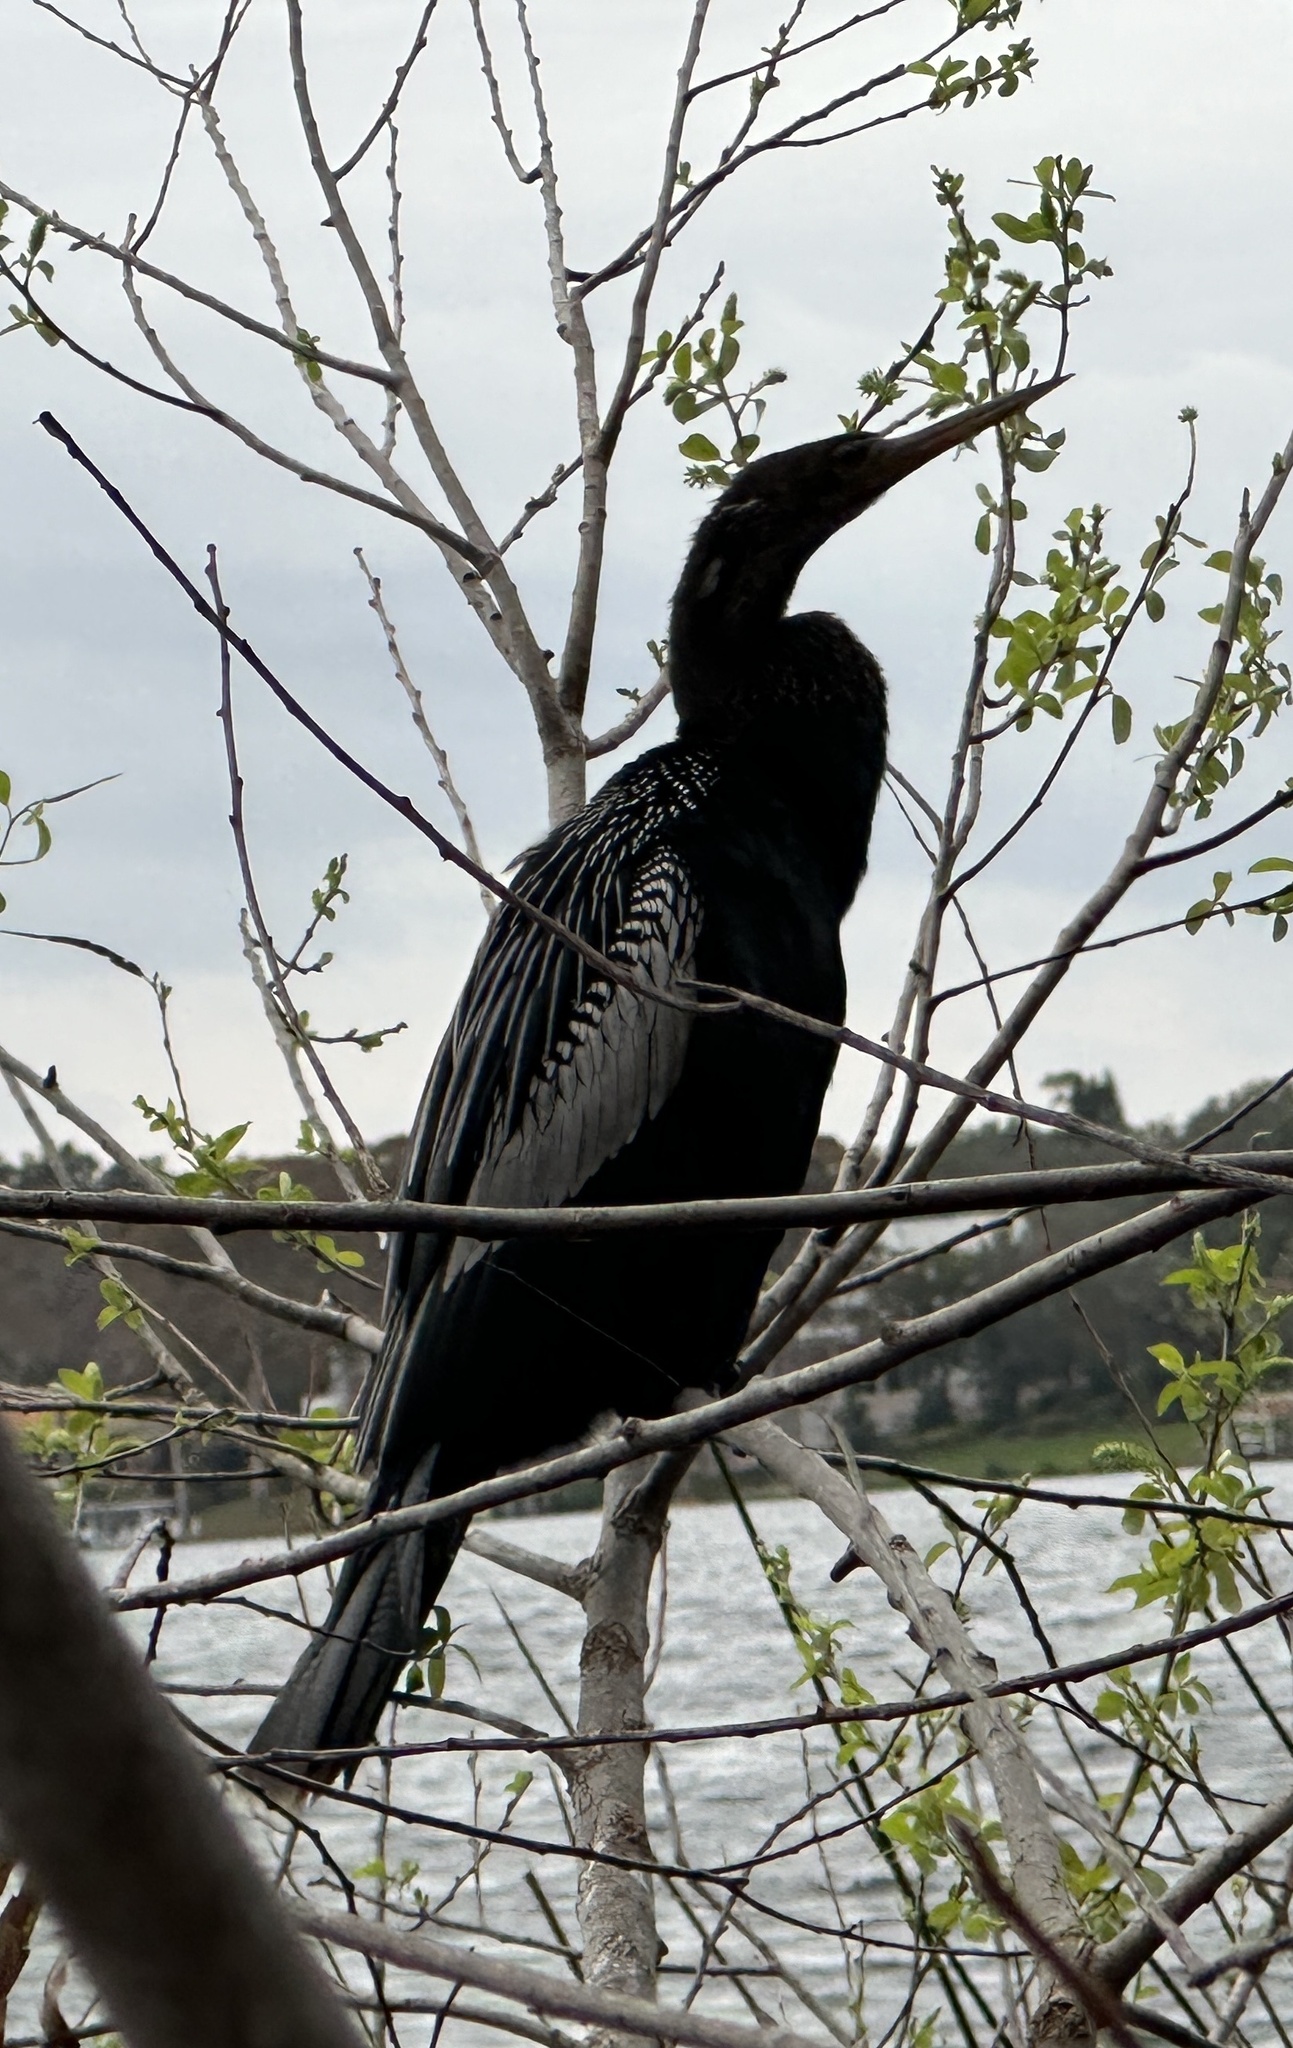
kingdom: Animalia
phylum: Chordata
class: Aves
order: Suliformes
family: Anhingidae
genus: Anhinga
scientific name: Anhinga anhinga
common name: Anhinga
